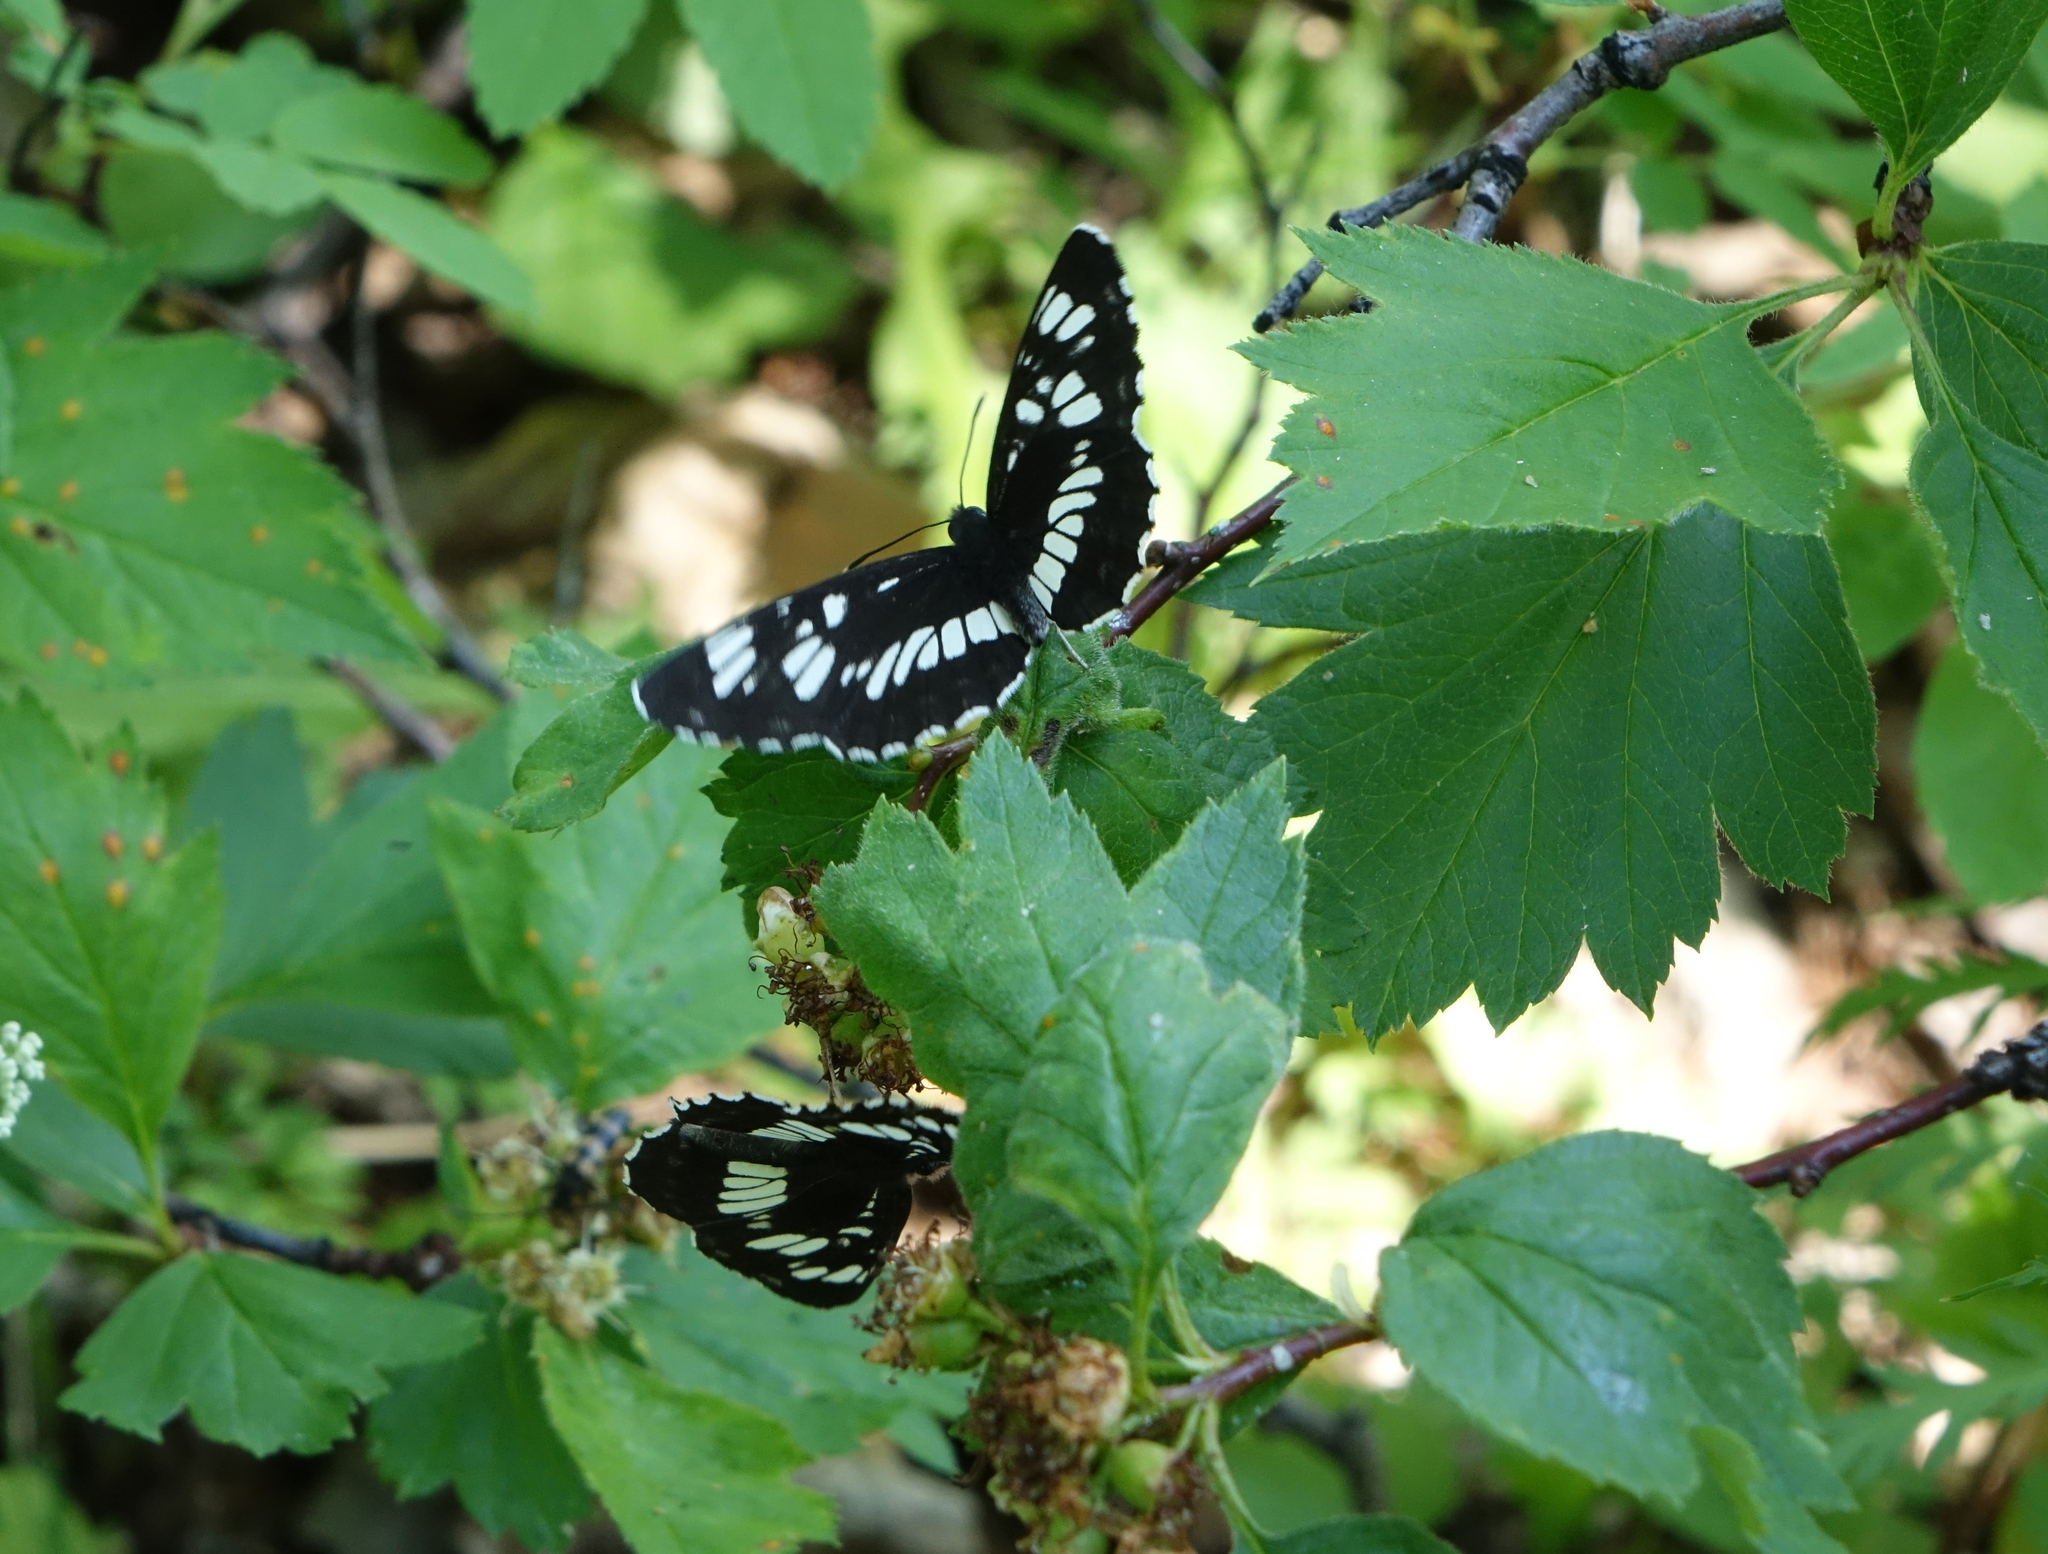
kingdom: Animalia
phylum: Arthropoda
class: Insecta
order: Lepidoptera
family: Nymphalidae
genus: Neptis
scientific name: Neptis rivularis
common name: Hungarian glider
